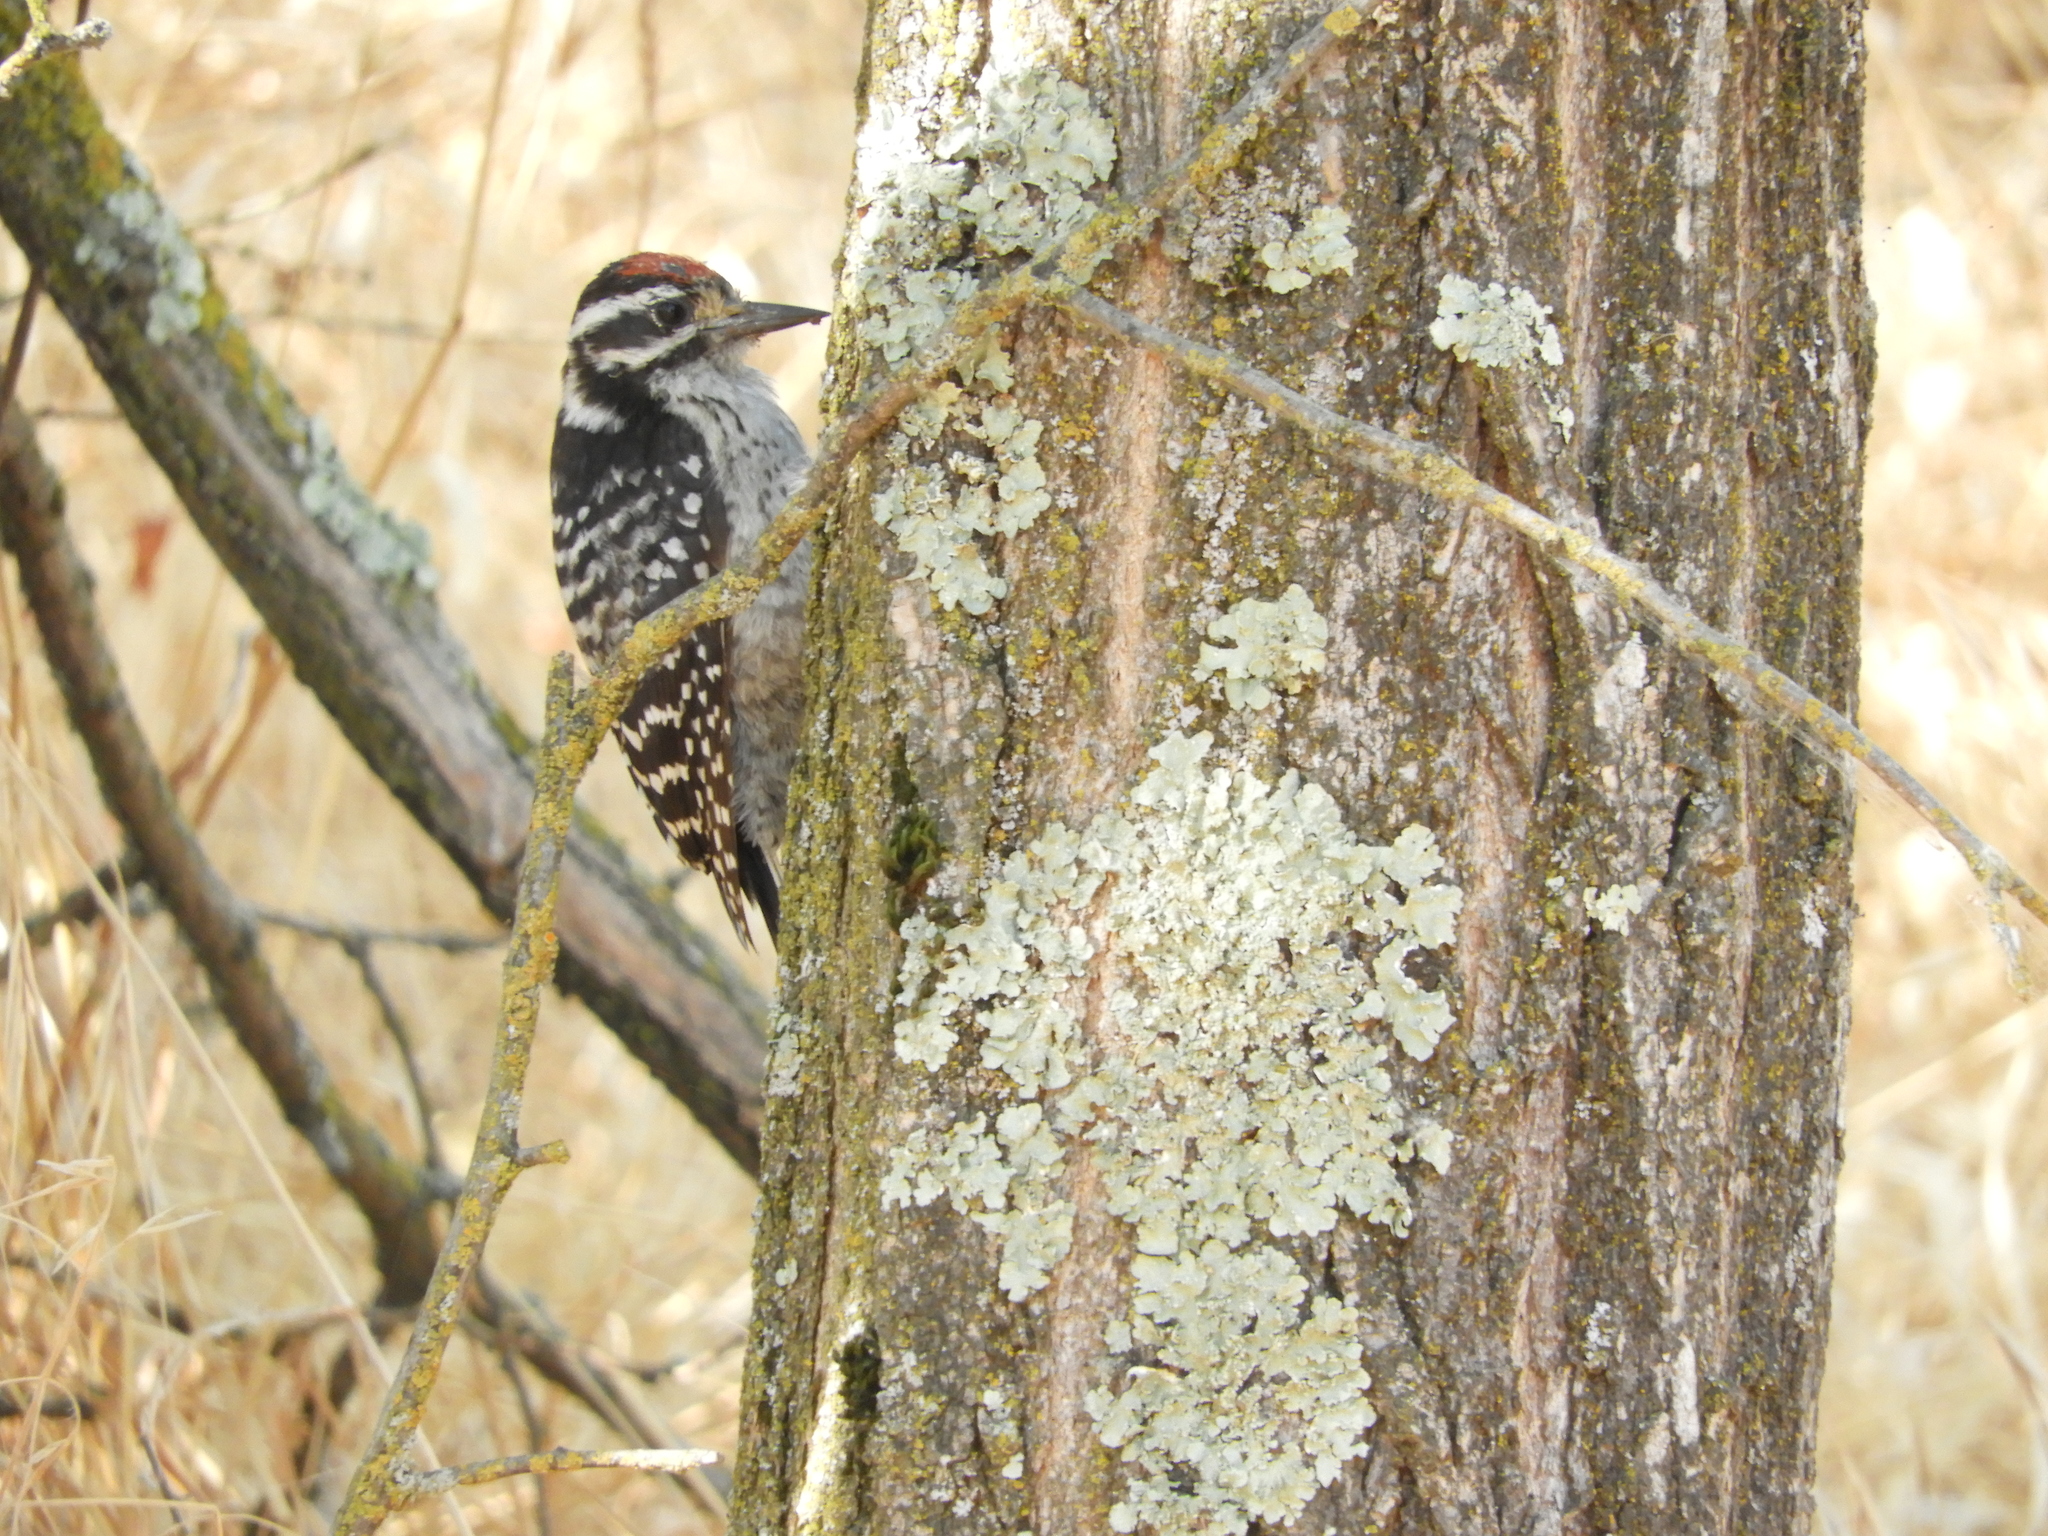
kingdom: Animalia
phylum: Chordata
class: Aves
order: Piciformes
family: Picidae
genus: Dryobates
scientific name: Dryobates nuttallii
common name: Nuttall's woodpecker
